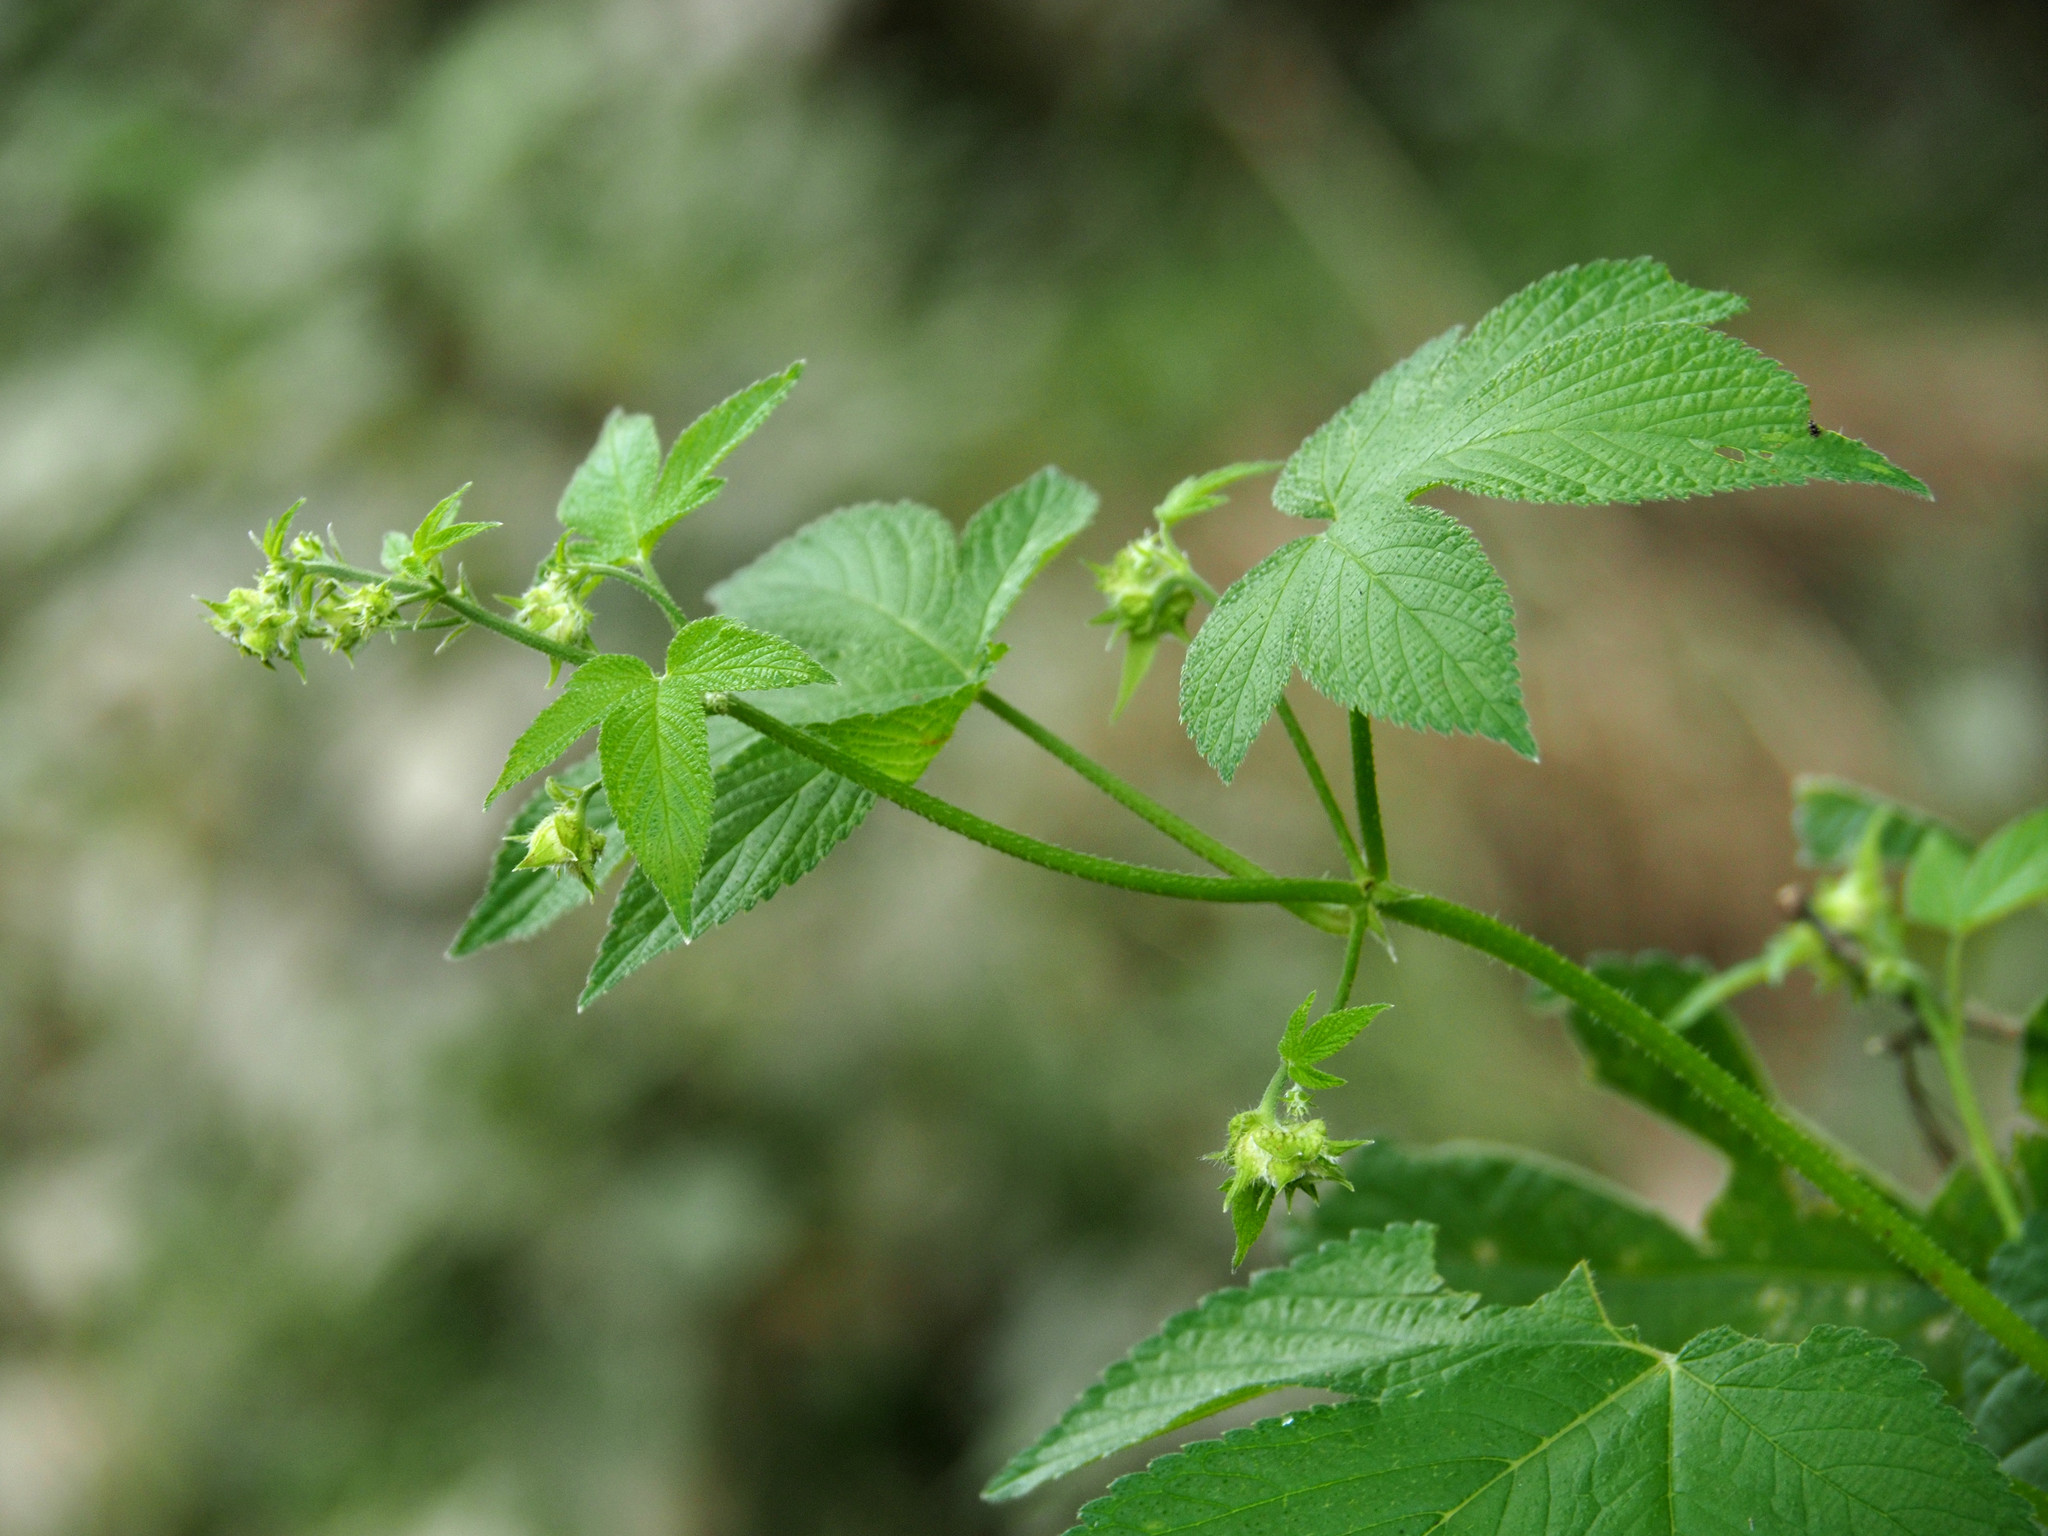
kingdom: Plantae
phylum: Tracheophyta
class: Magnoliopsida
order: Rosales
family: Cannabaceae
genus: Humulus
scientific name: Humulus scandens
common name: Japanese hop
